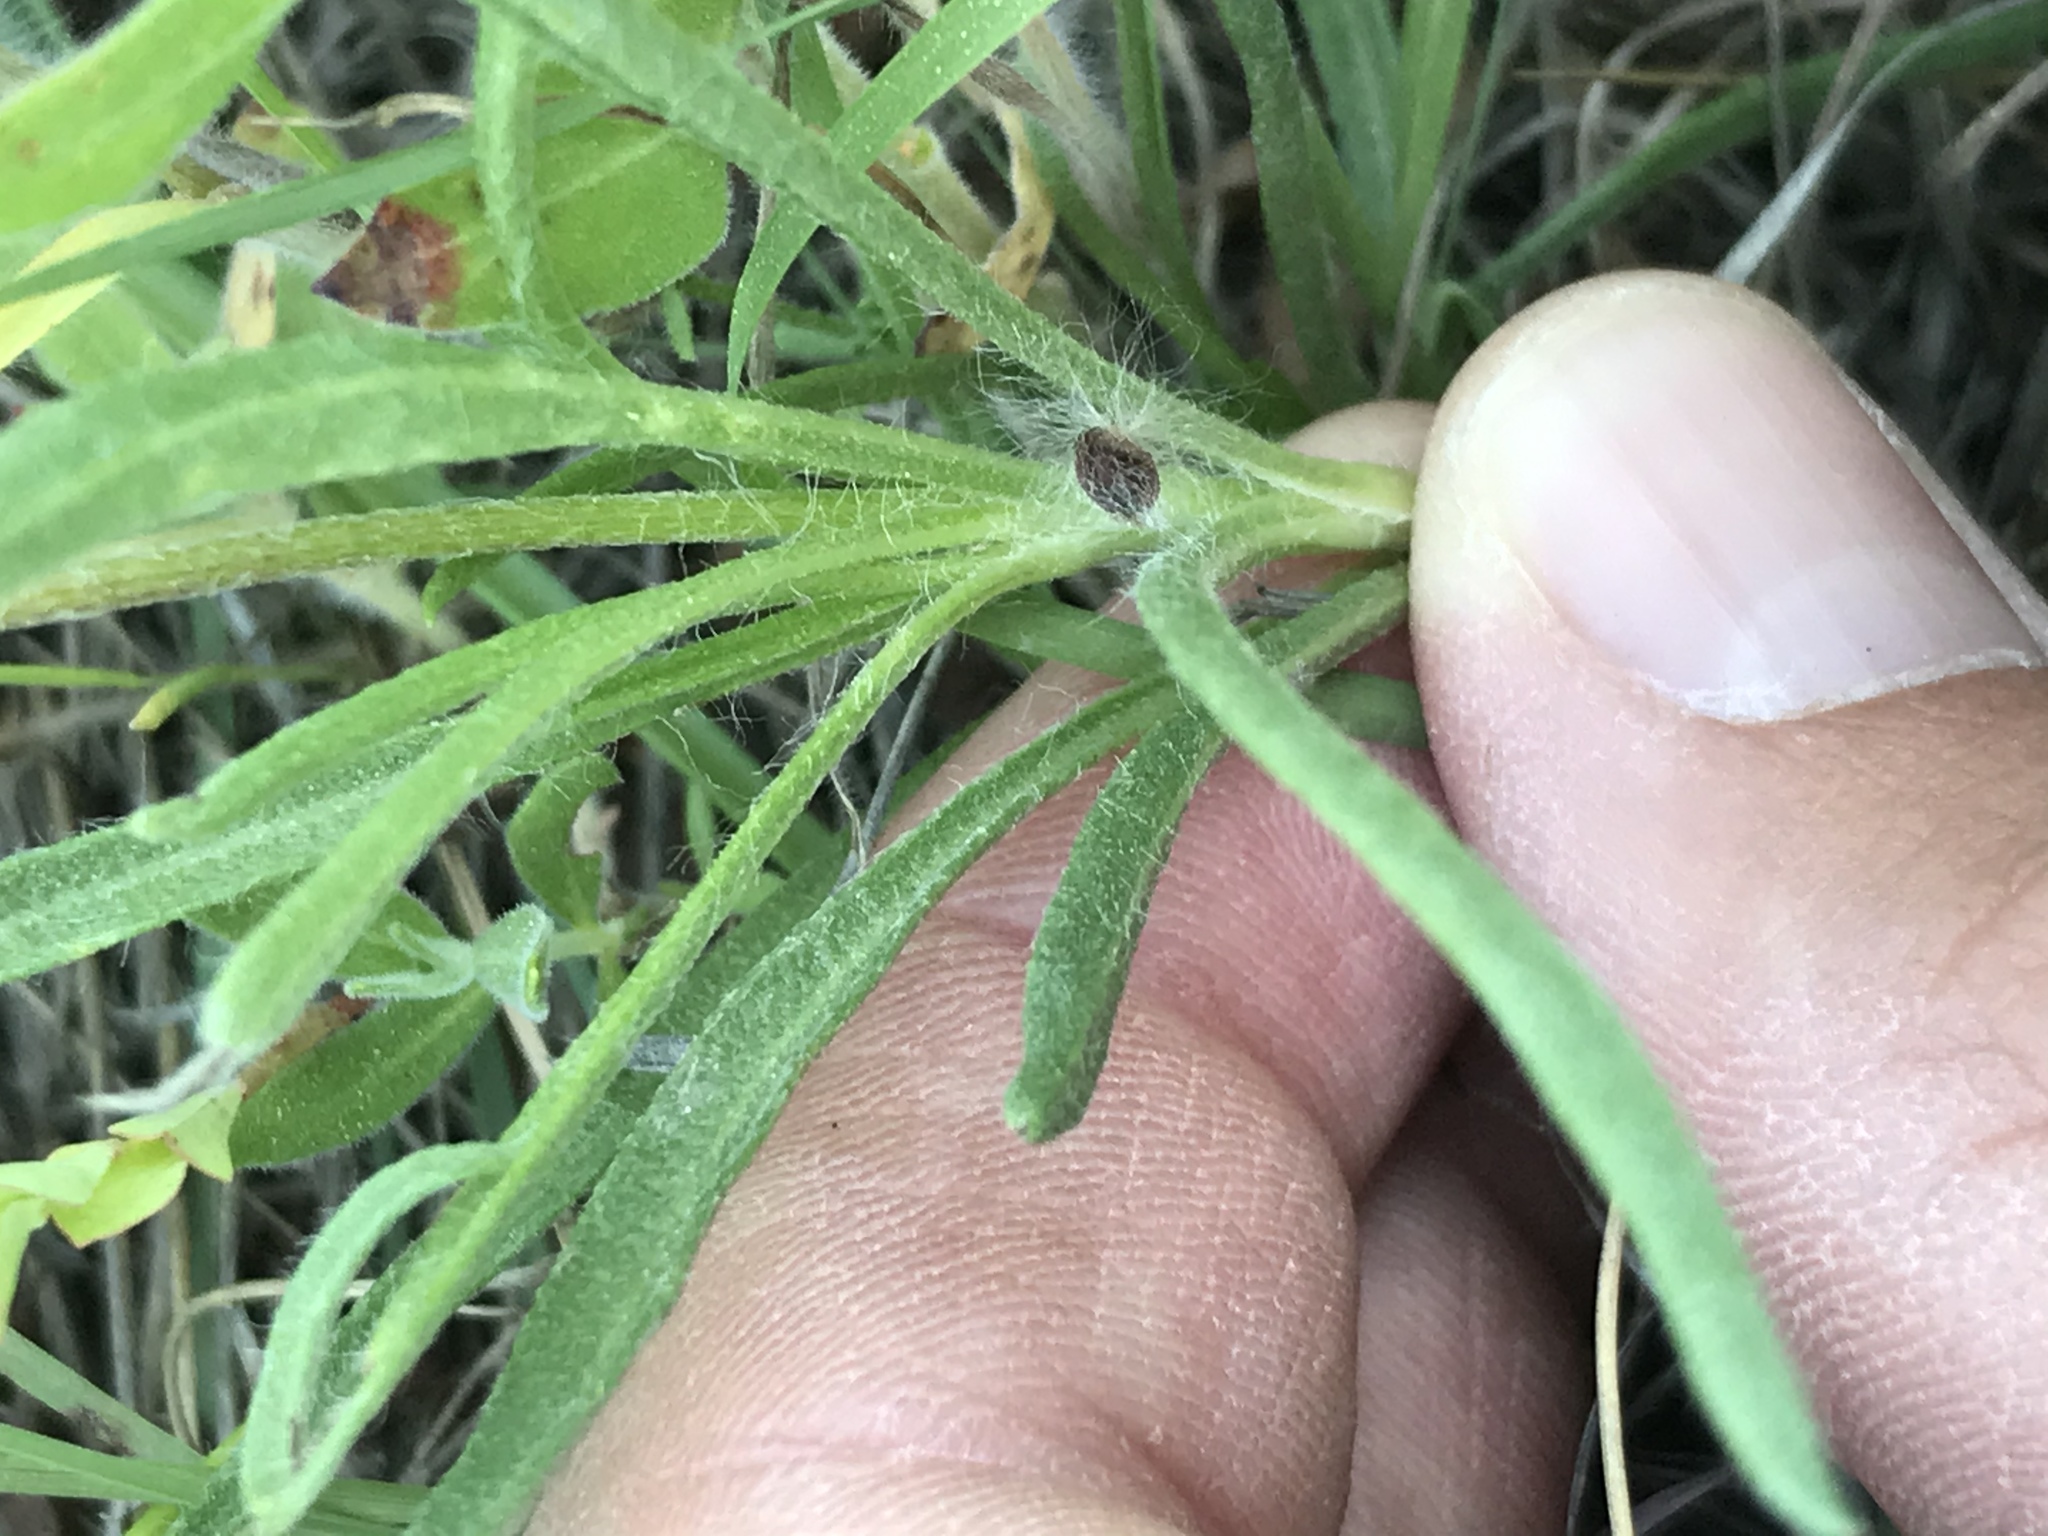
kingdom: Plantae
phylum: Tracheophyta
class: Magnoliopsida
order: Asterales
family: Asteraceae
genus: Tetraneuris
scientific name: Tetraneuris scaposa
